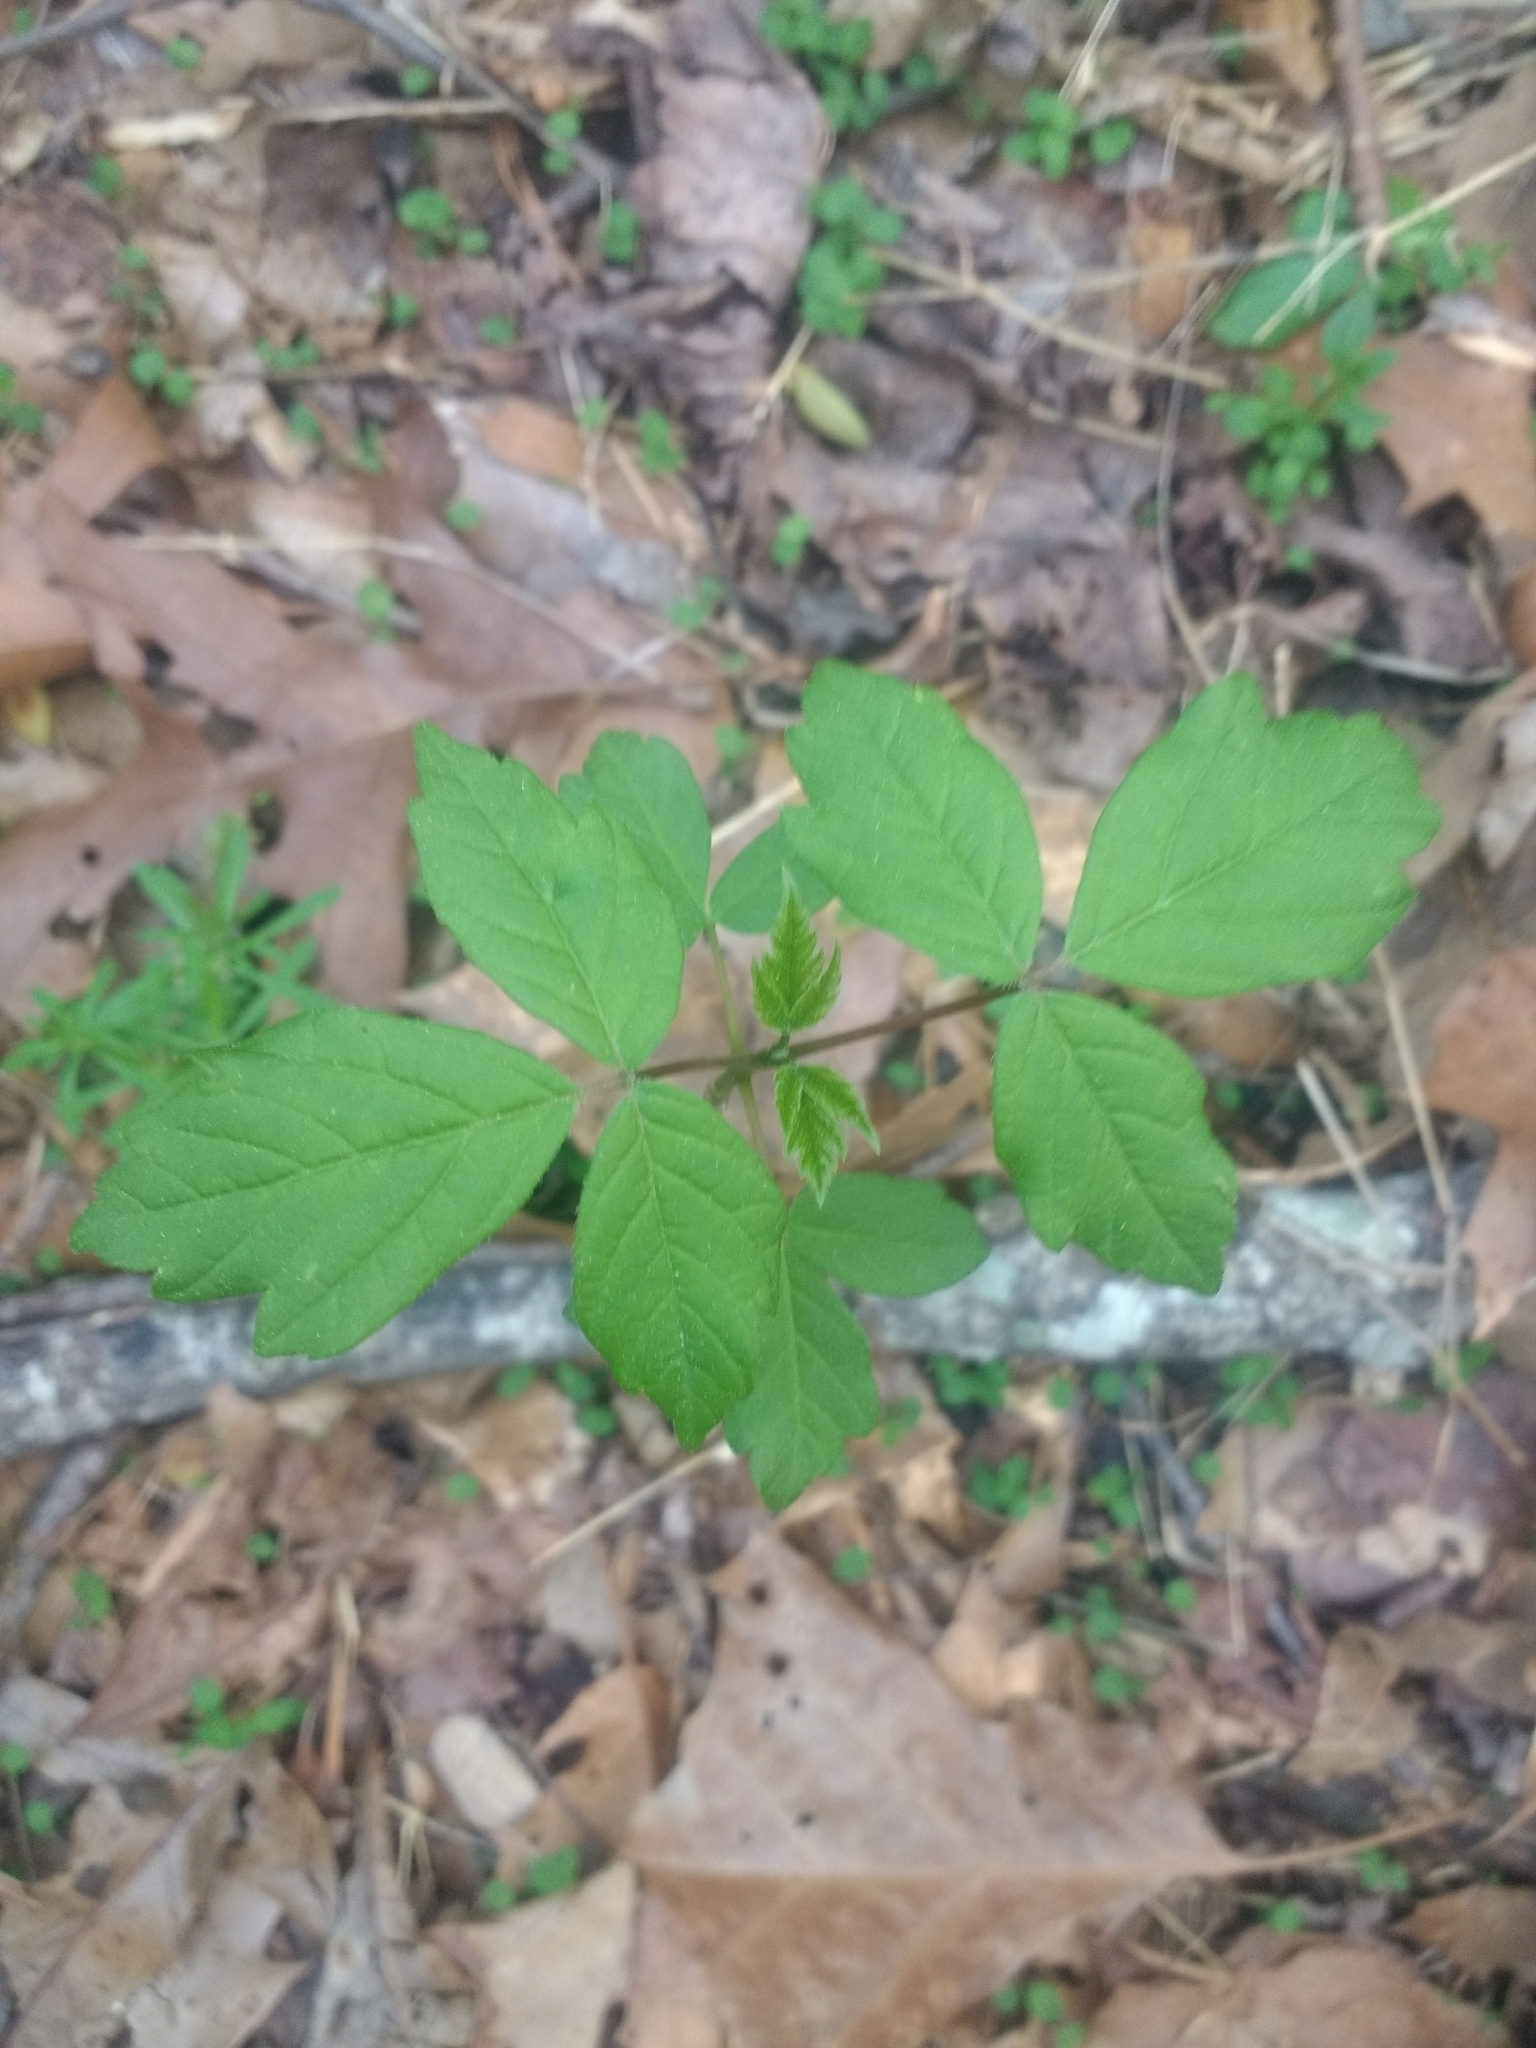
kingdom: Plantae
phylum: Tracheophyta
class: Magnoliopsida
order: Sapindales
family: Sapindaceae
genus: Acer
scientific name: Acer negundo
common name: Ashleaf maple
